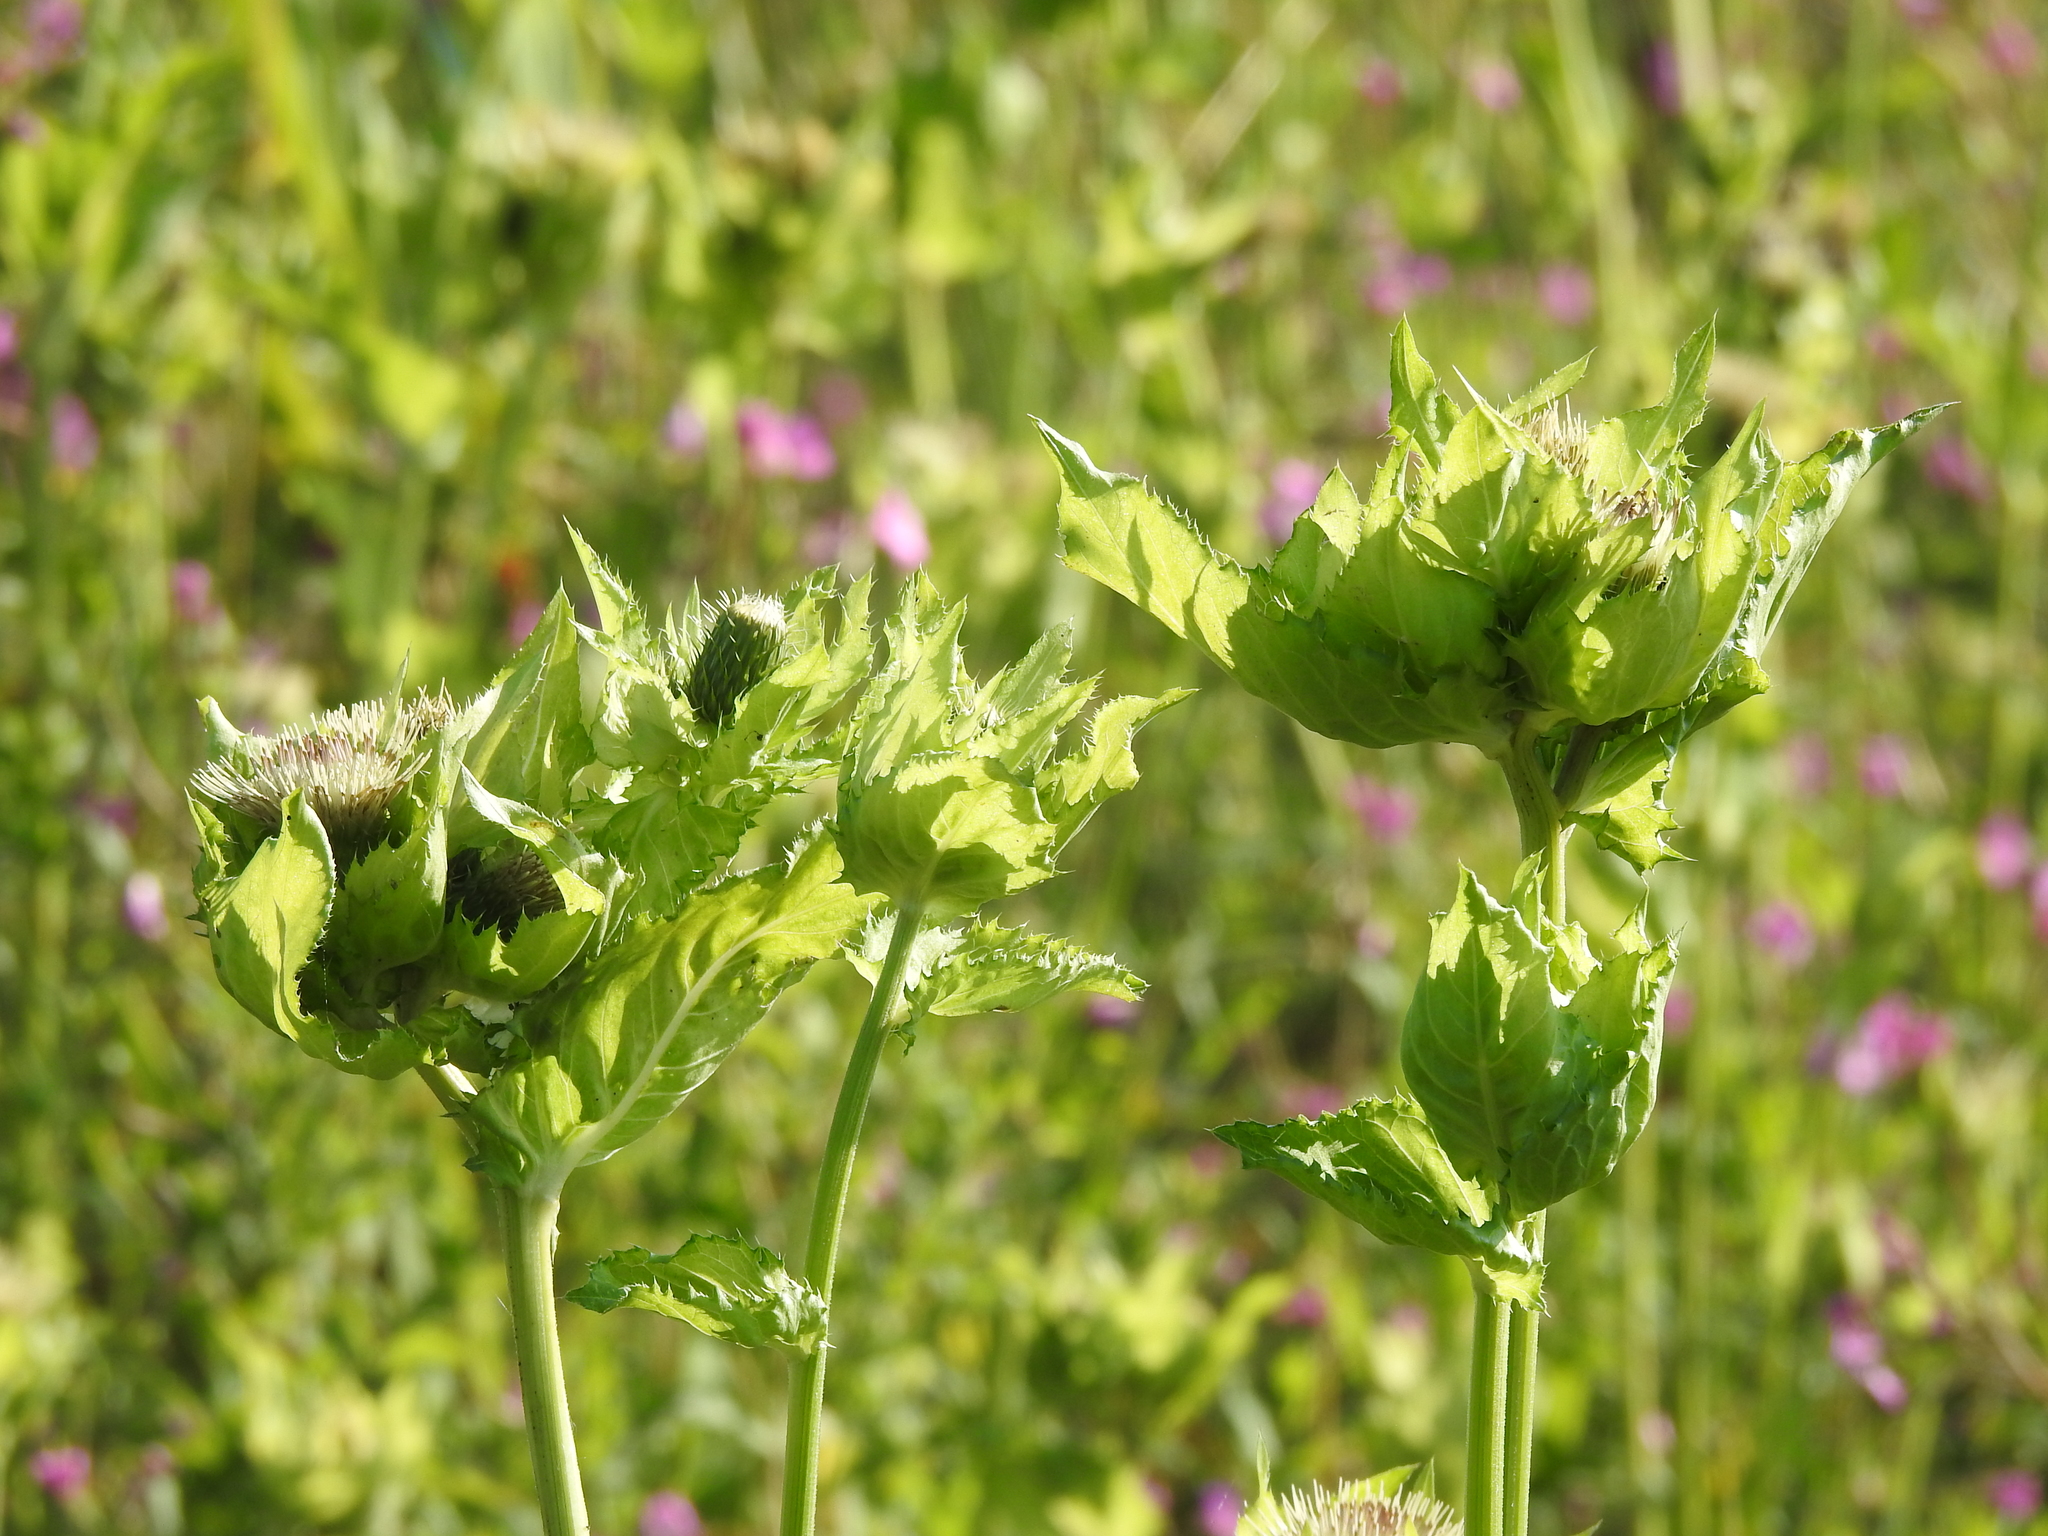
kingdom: Plantae
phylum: Tracheophyta
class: Magnoliopsida
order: Asterales
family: Asteraceae
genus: Cirsium
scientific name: Cirsium oleraceum
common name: Cabbage thistle
